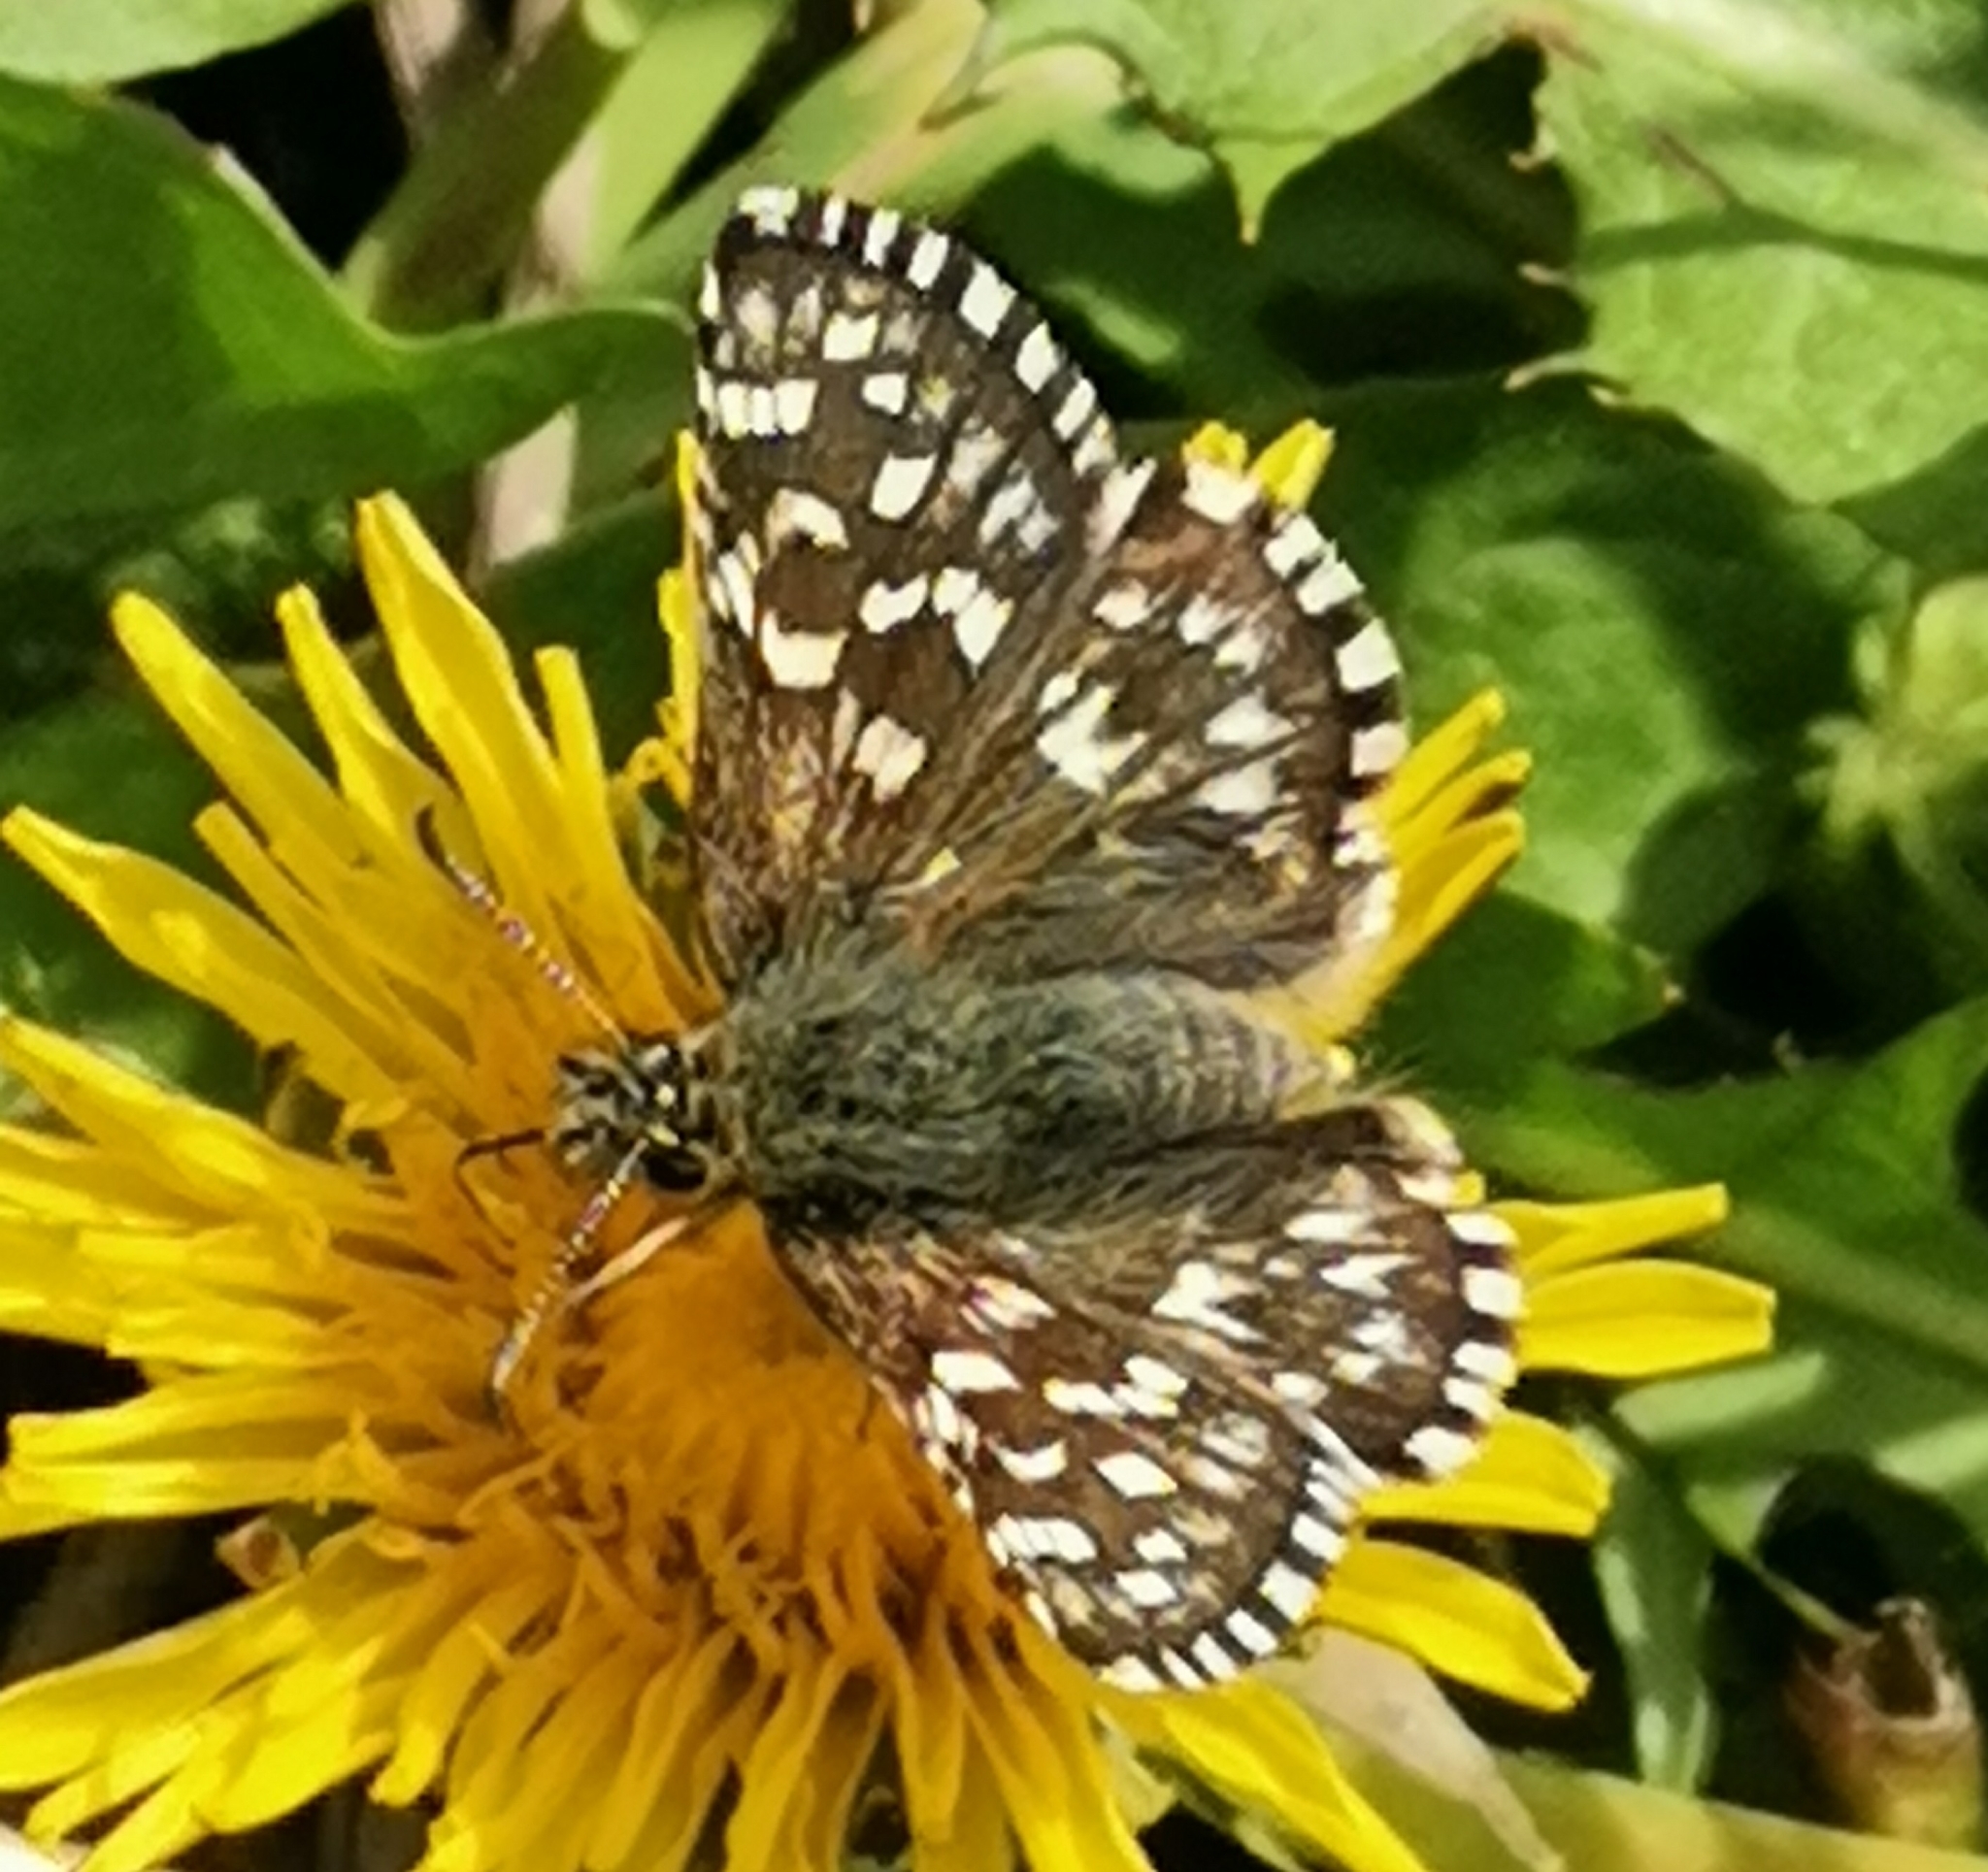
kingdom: Animalia
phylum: Arthropoda
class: Insecta
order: Lepidoptera
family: Hesperiidae
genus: Pyrgus
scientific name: Pyrgus malvae
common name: Grizzled skipper
